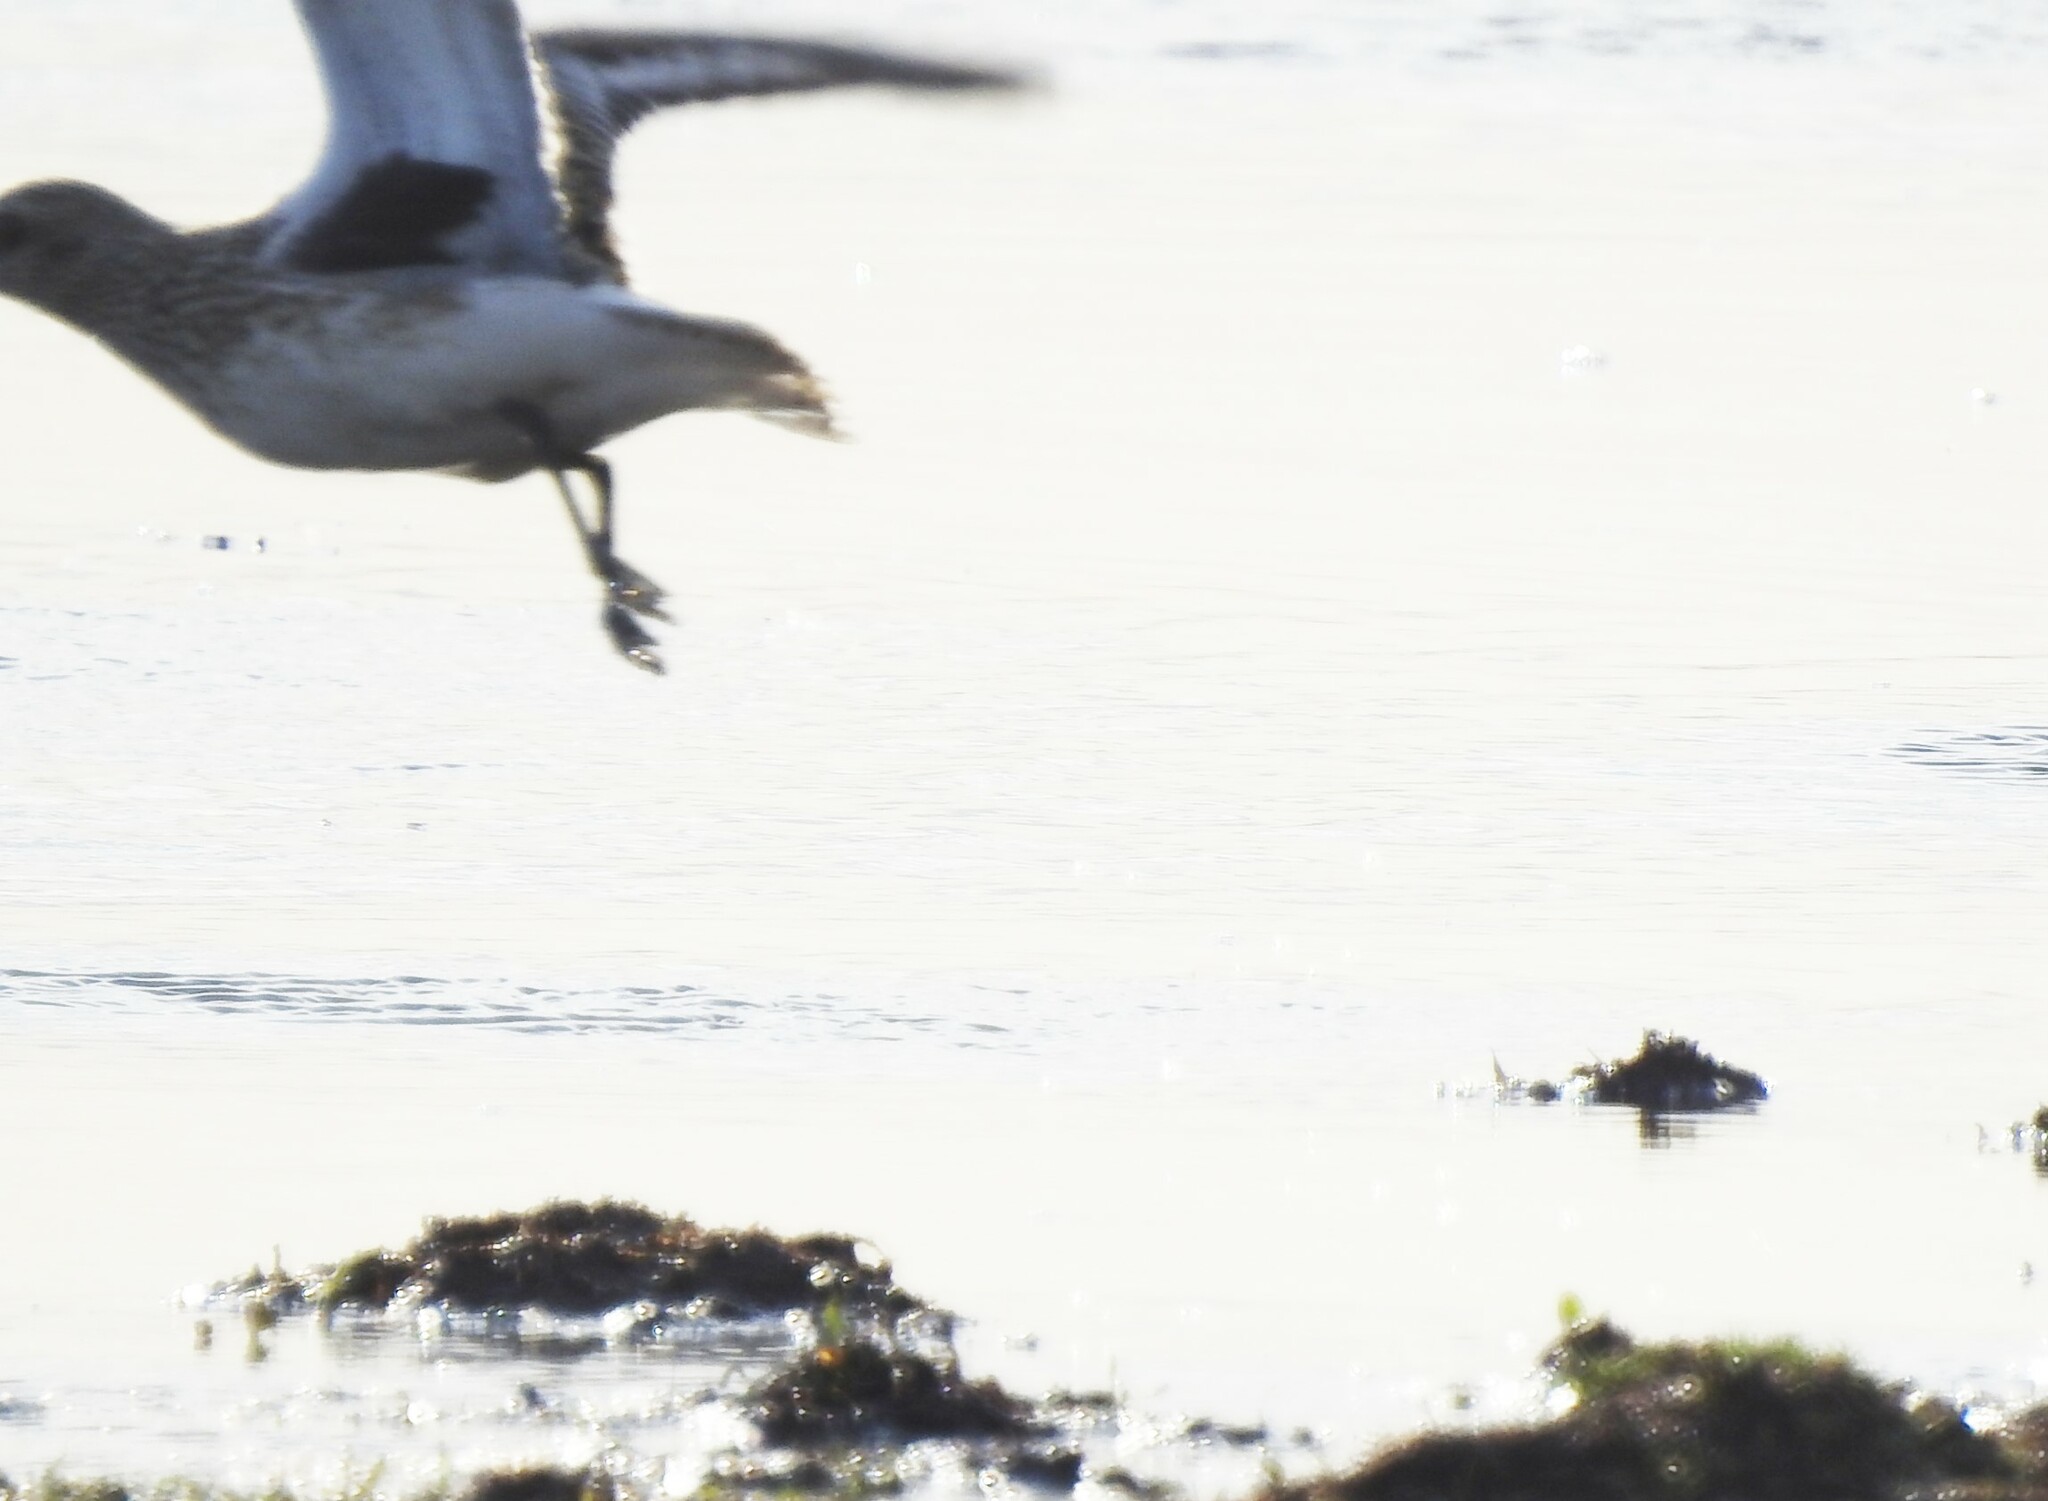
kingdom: Animalia
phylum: Chordata
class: Aves
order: Charadriiformes
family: Charadriidae
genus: Pluvialis
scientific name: Pluvialis squatarola
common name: Grey plover
